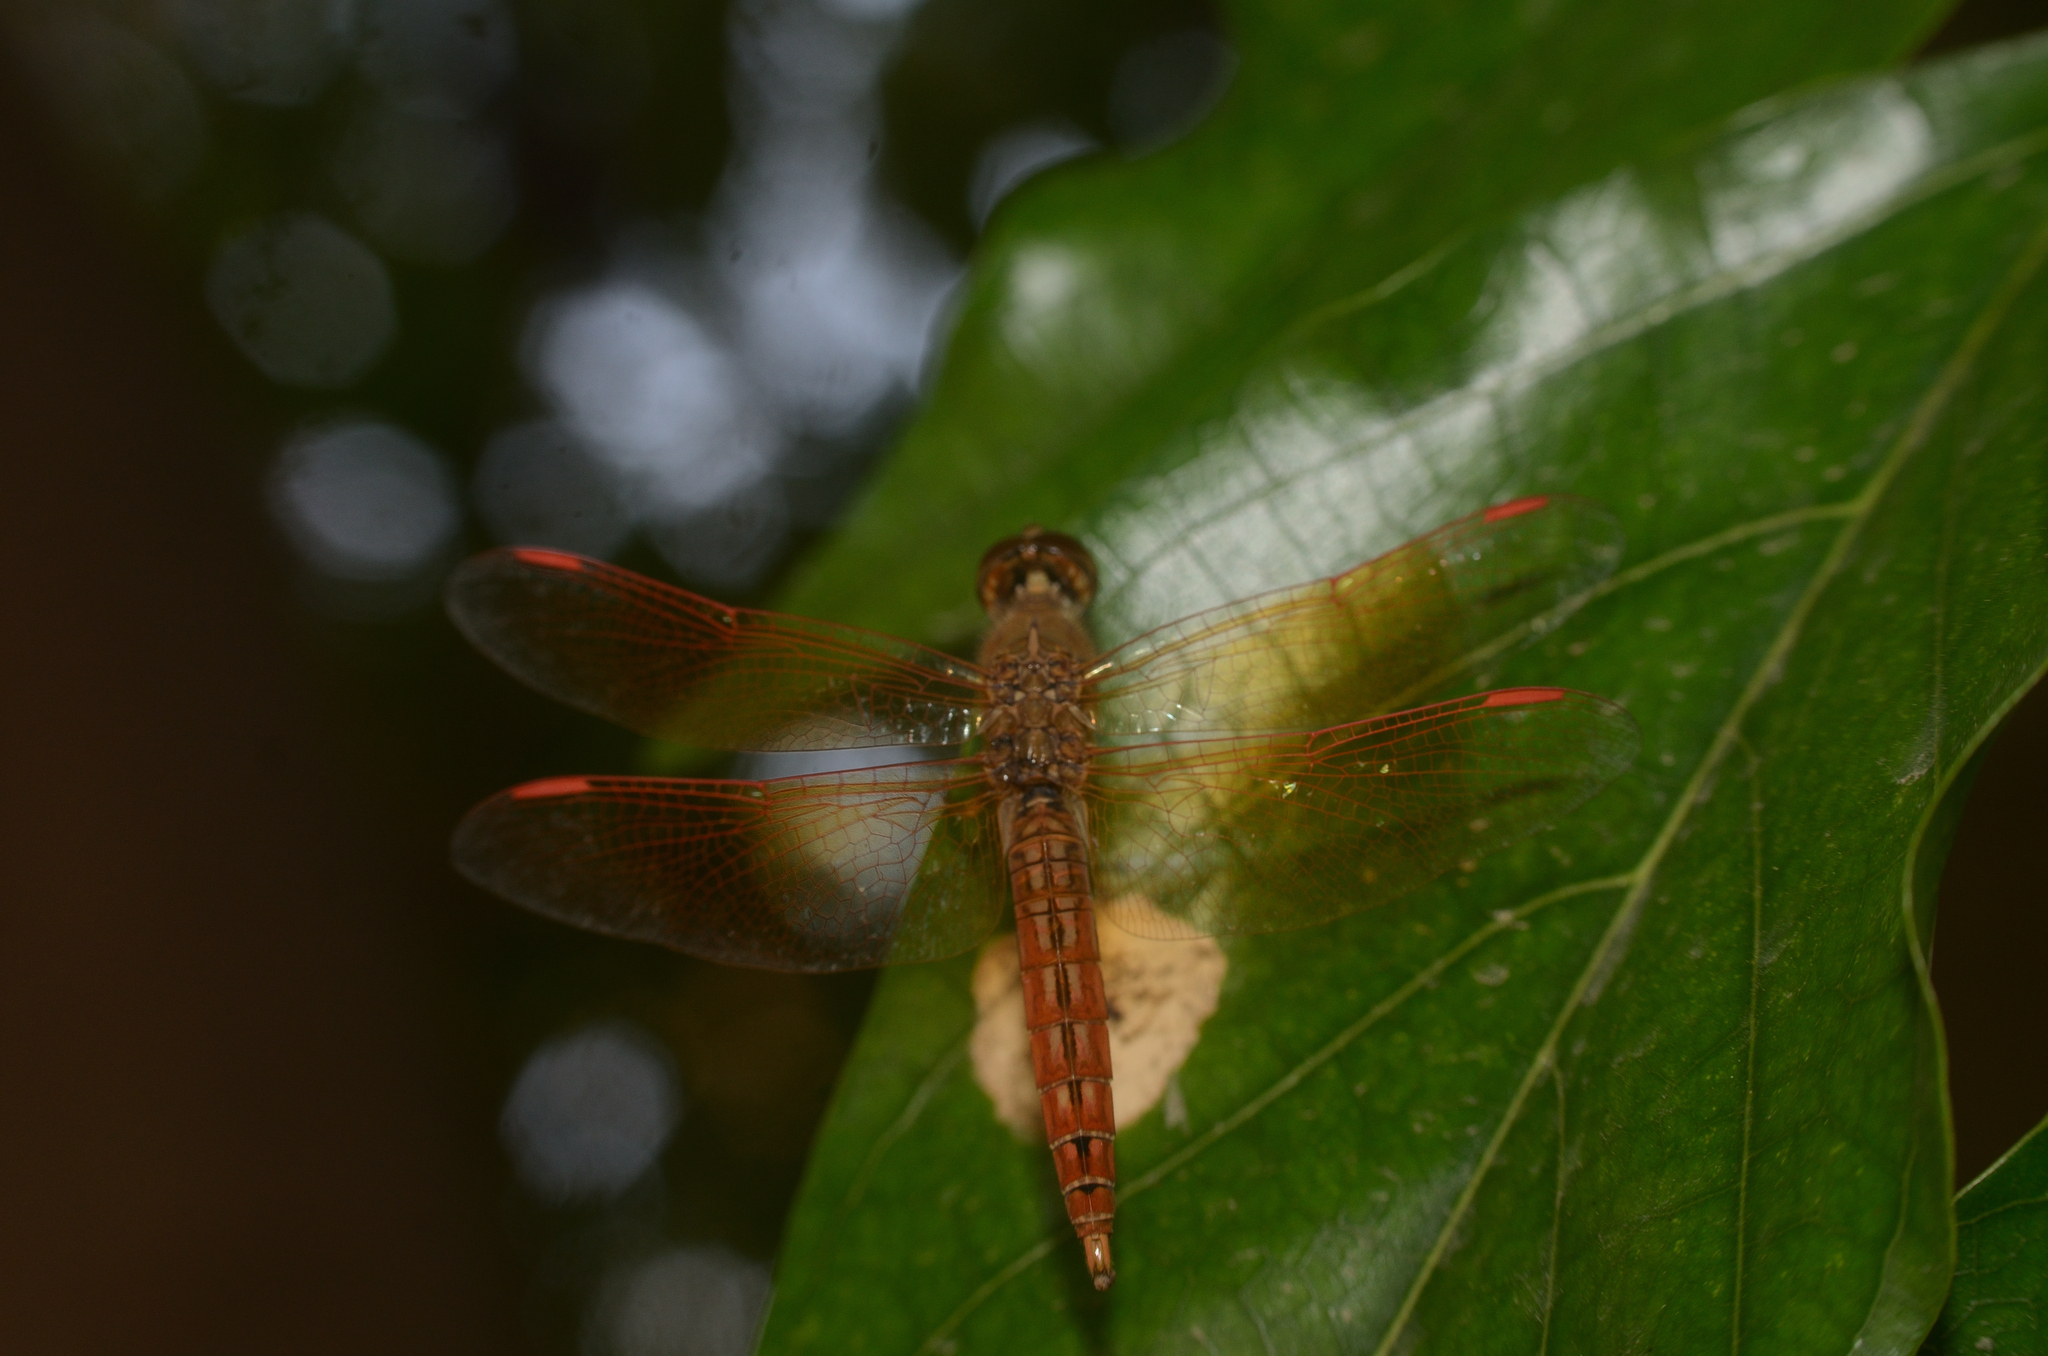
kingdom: Animalia
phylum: Arthropoda
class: Insecta
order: Odonata
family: Libellulidae
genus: Brachythemis
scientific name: Brachythemis contaminata
